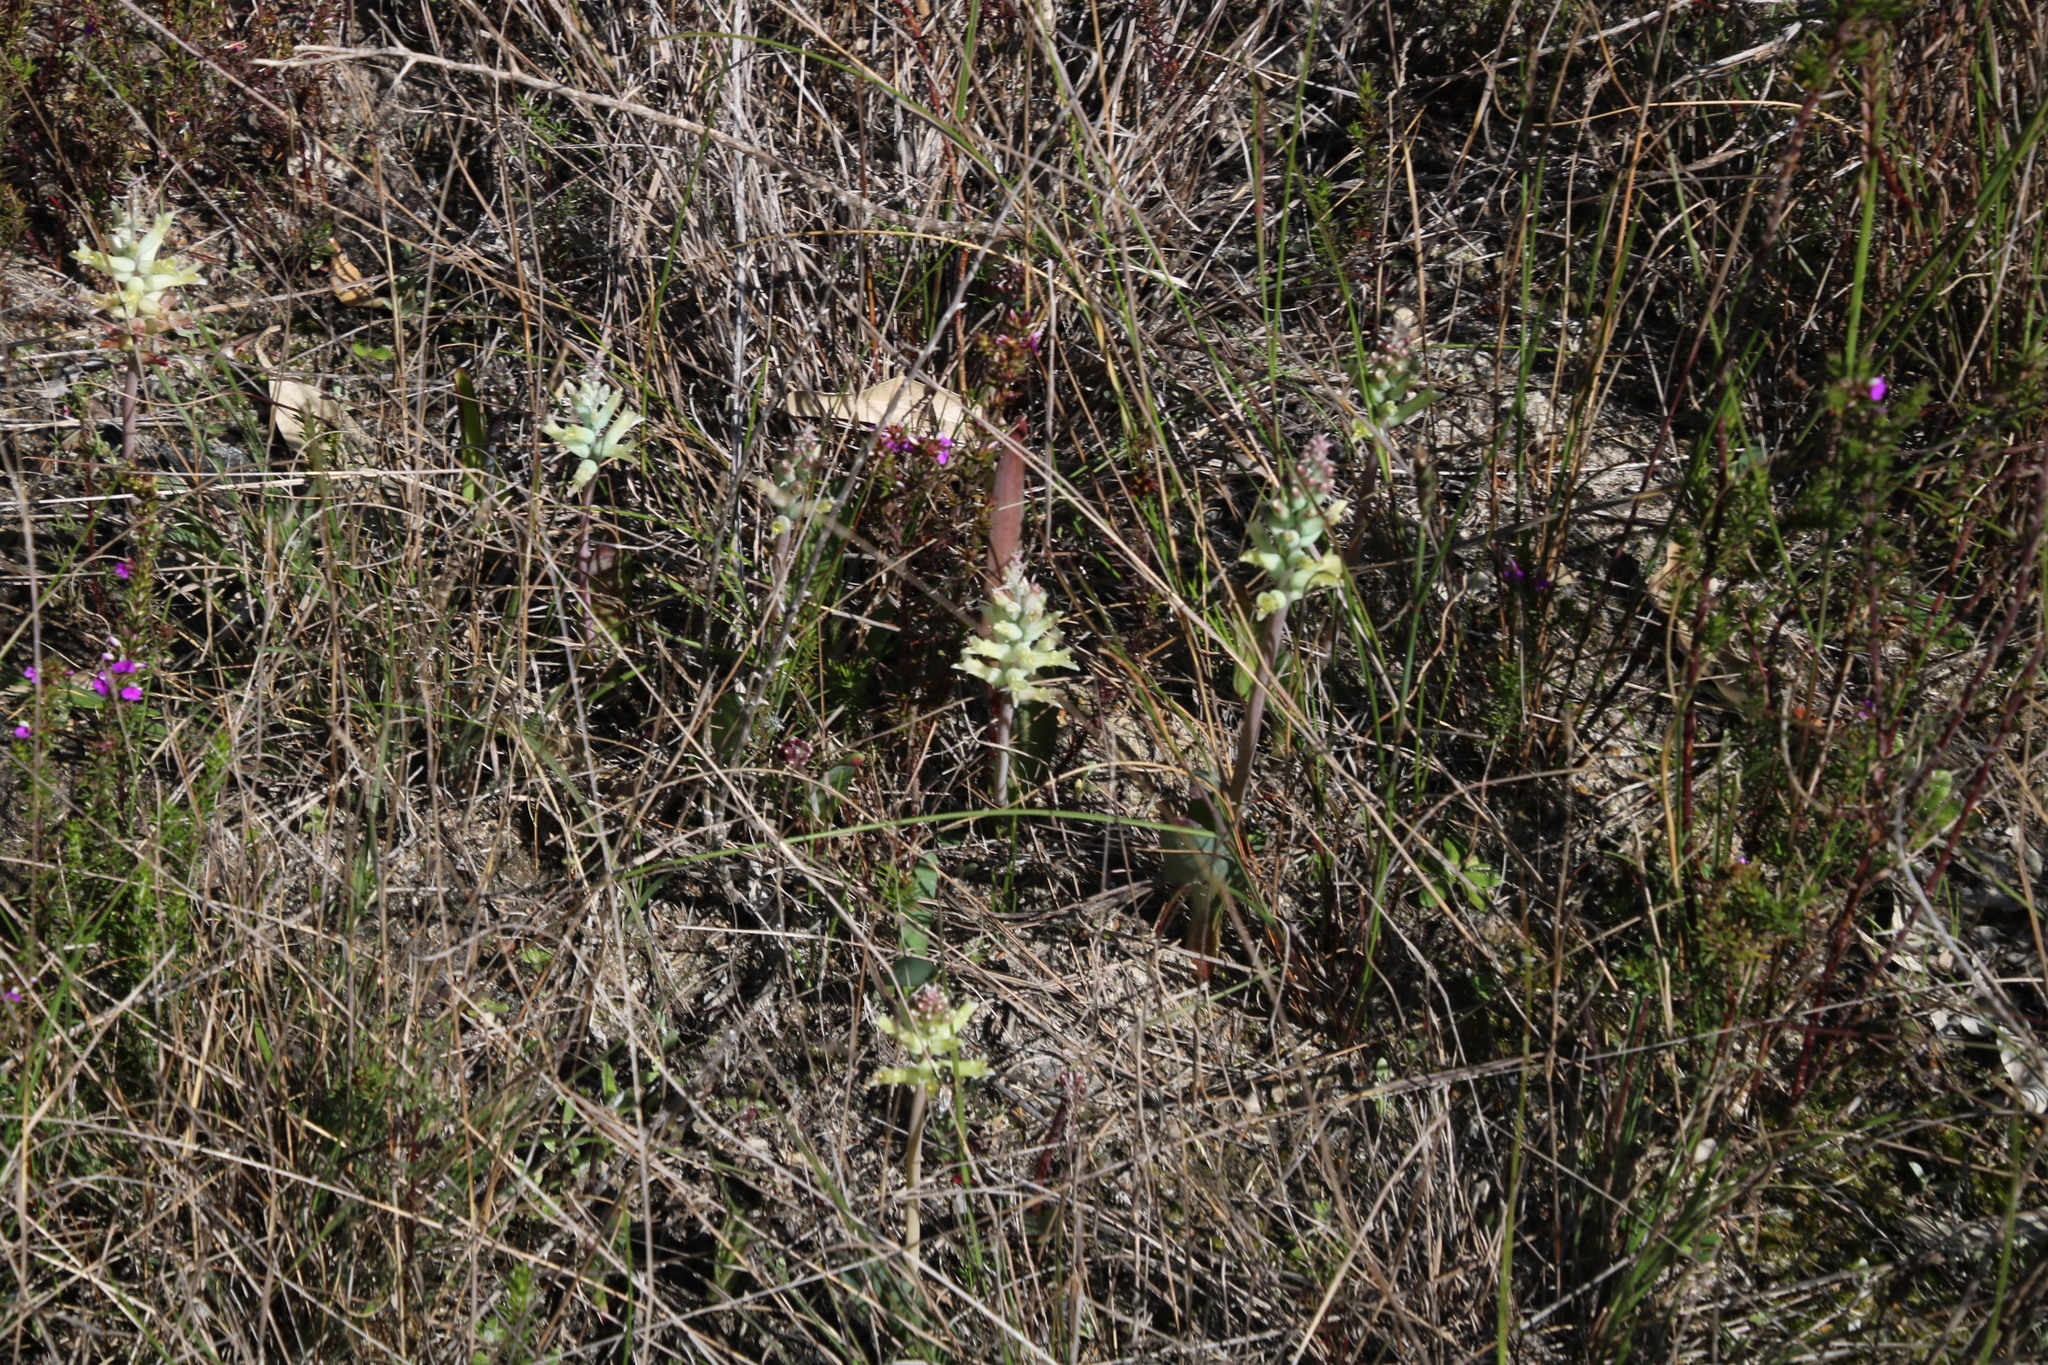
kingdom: Plantae
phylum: Tracheophyta
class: Liliopsida
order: Asparagales
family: Asparagaceae
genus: Lachenalia
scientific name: Lachenalia orchioides
